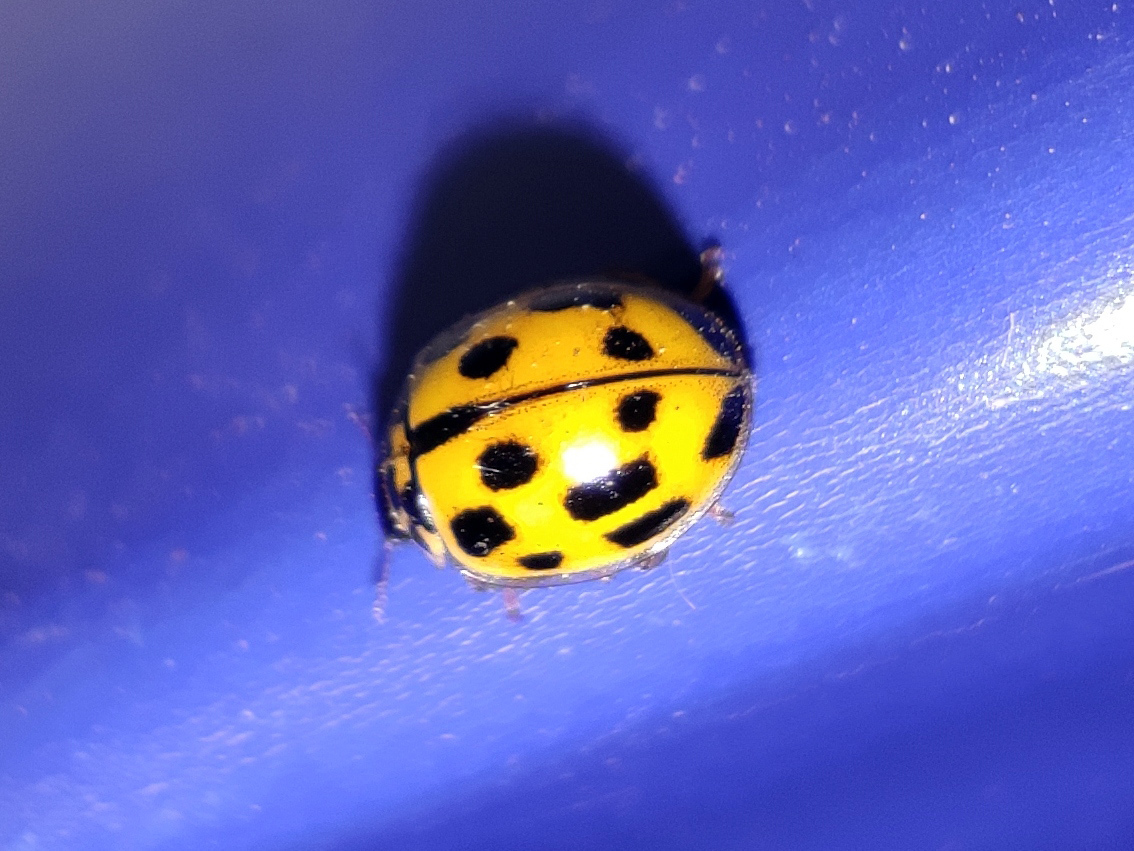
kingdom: Animalia
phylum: Arthropoda
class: Insecta
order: Coleoptera
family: Coccinellidae
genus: Propylaea
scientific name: Propylaea quatuordecimpunctata
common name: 14-spotted ladybird beetle
